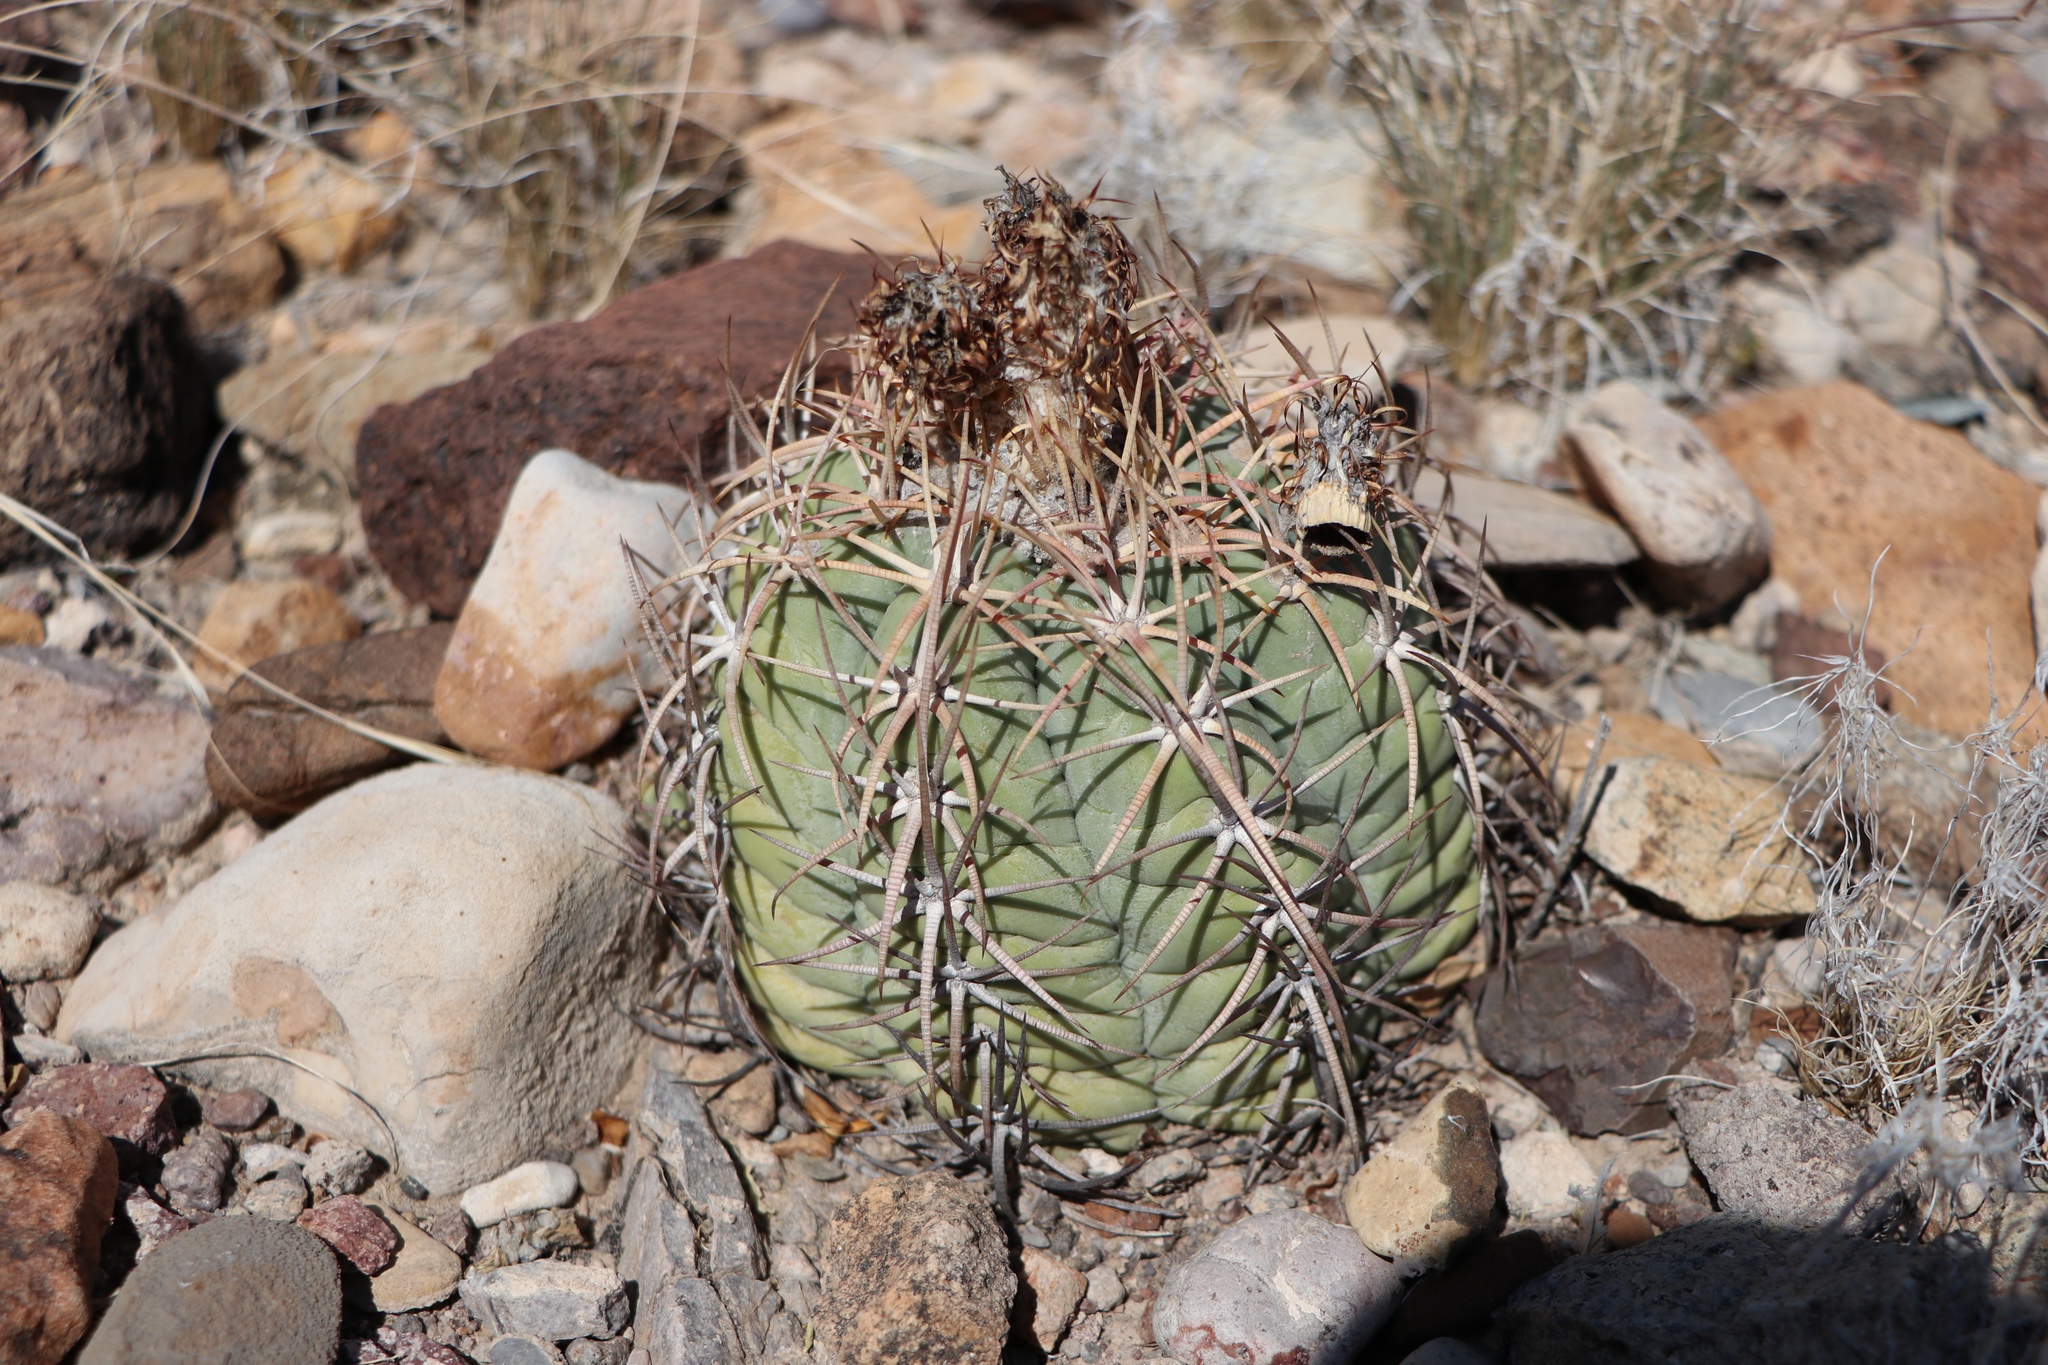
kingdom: Plantae
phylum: Tracheophyta
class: Magnoliopsida
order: Caryophyllales
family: Cactaceae
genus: Echinocactus
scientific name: Echinocactus horizonthalonius
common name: Devilshead
